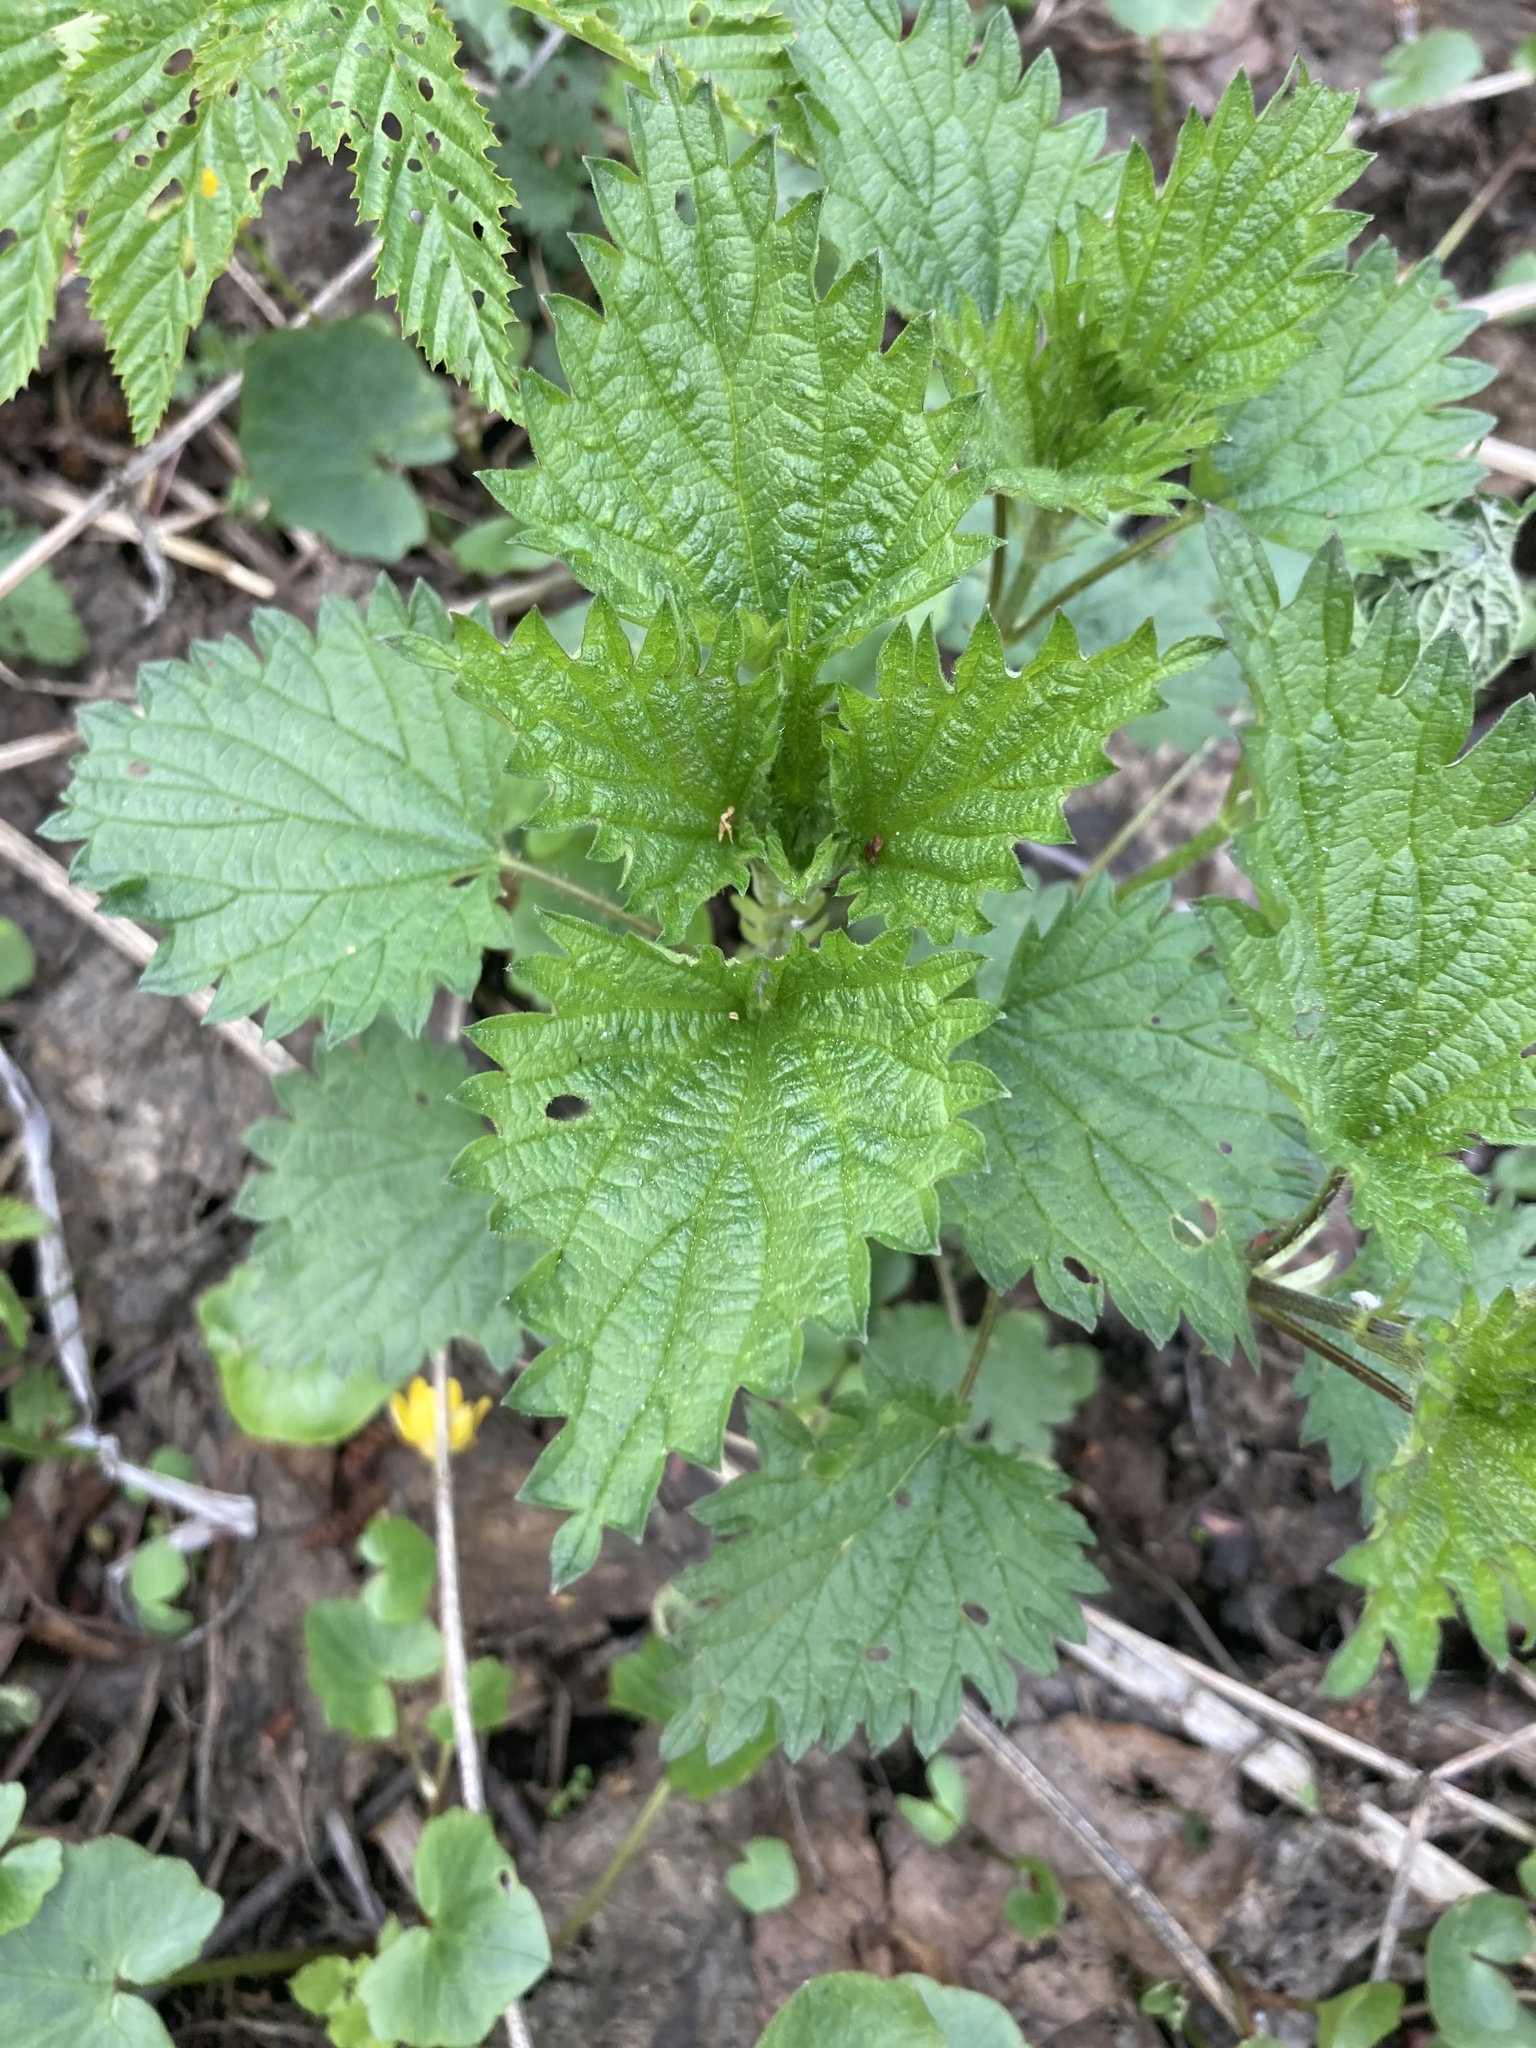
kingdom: Plantae
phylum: Tracheophyta
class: Magnoliopsida
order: Rosales
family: Urticaceae
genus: Urtica
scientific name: Urtica dioica
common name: Common nettle
